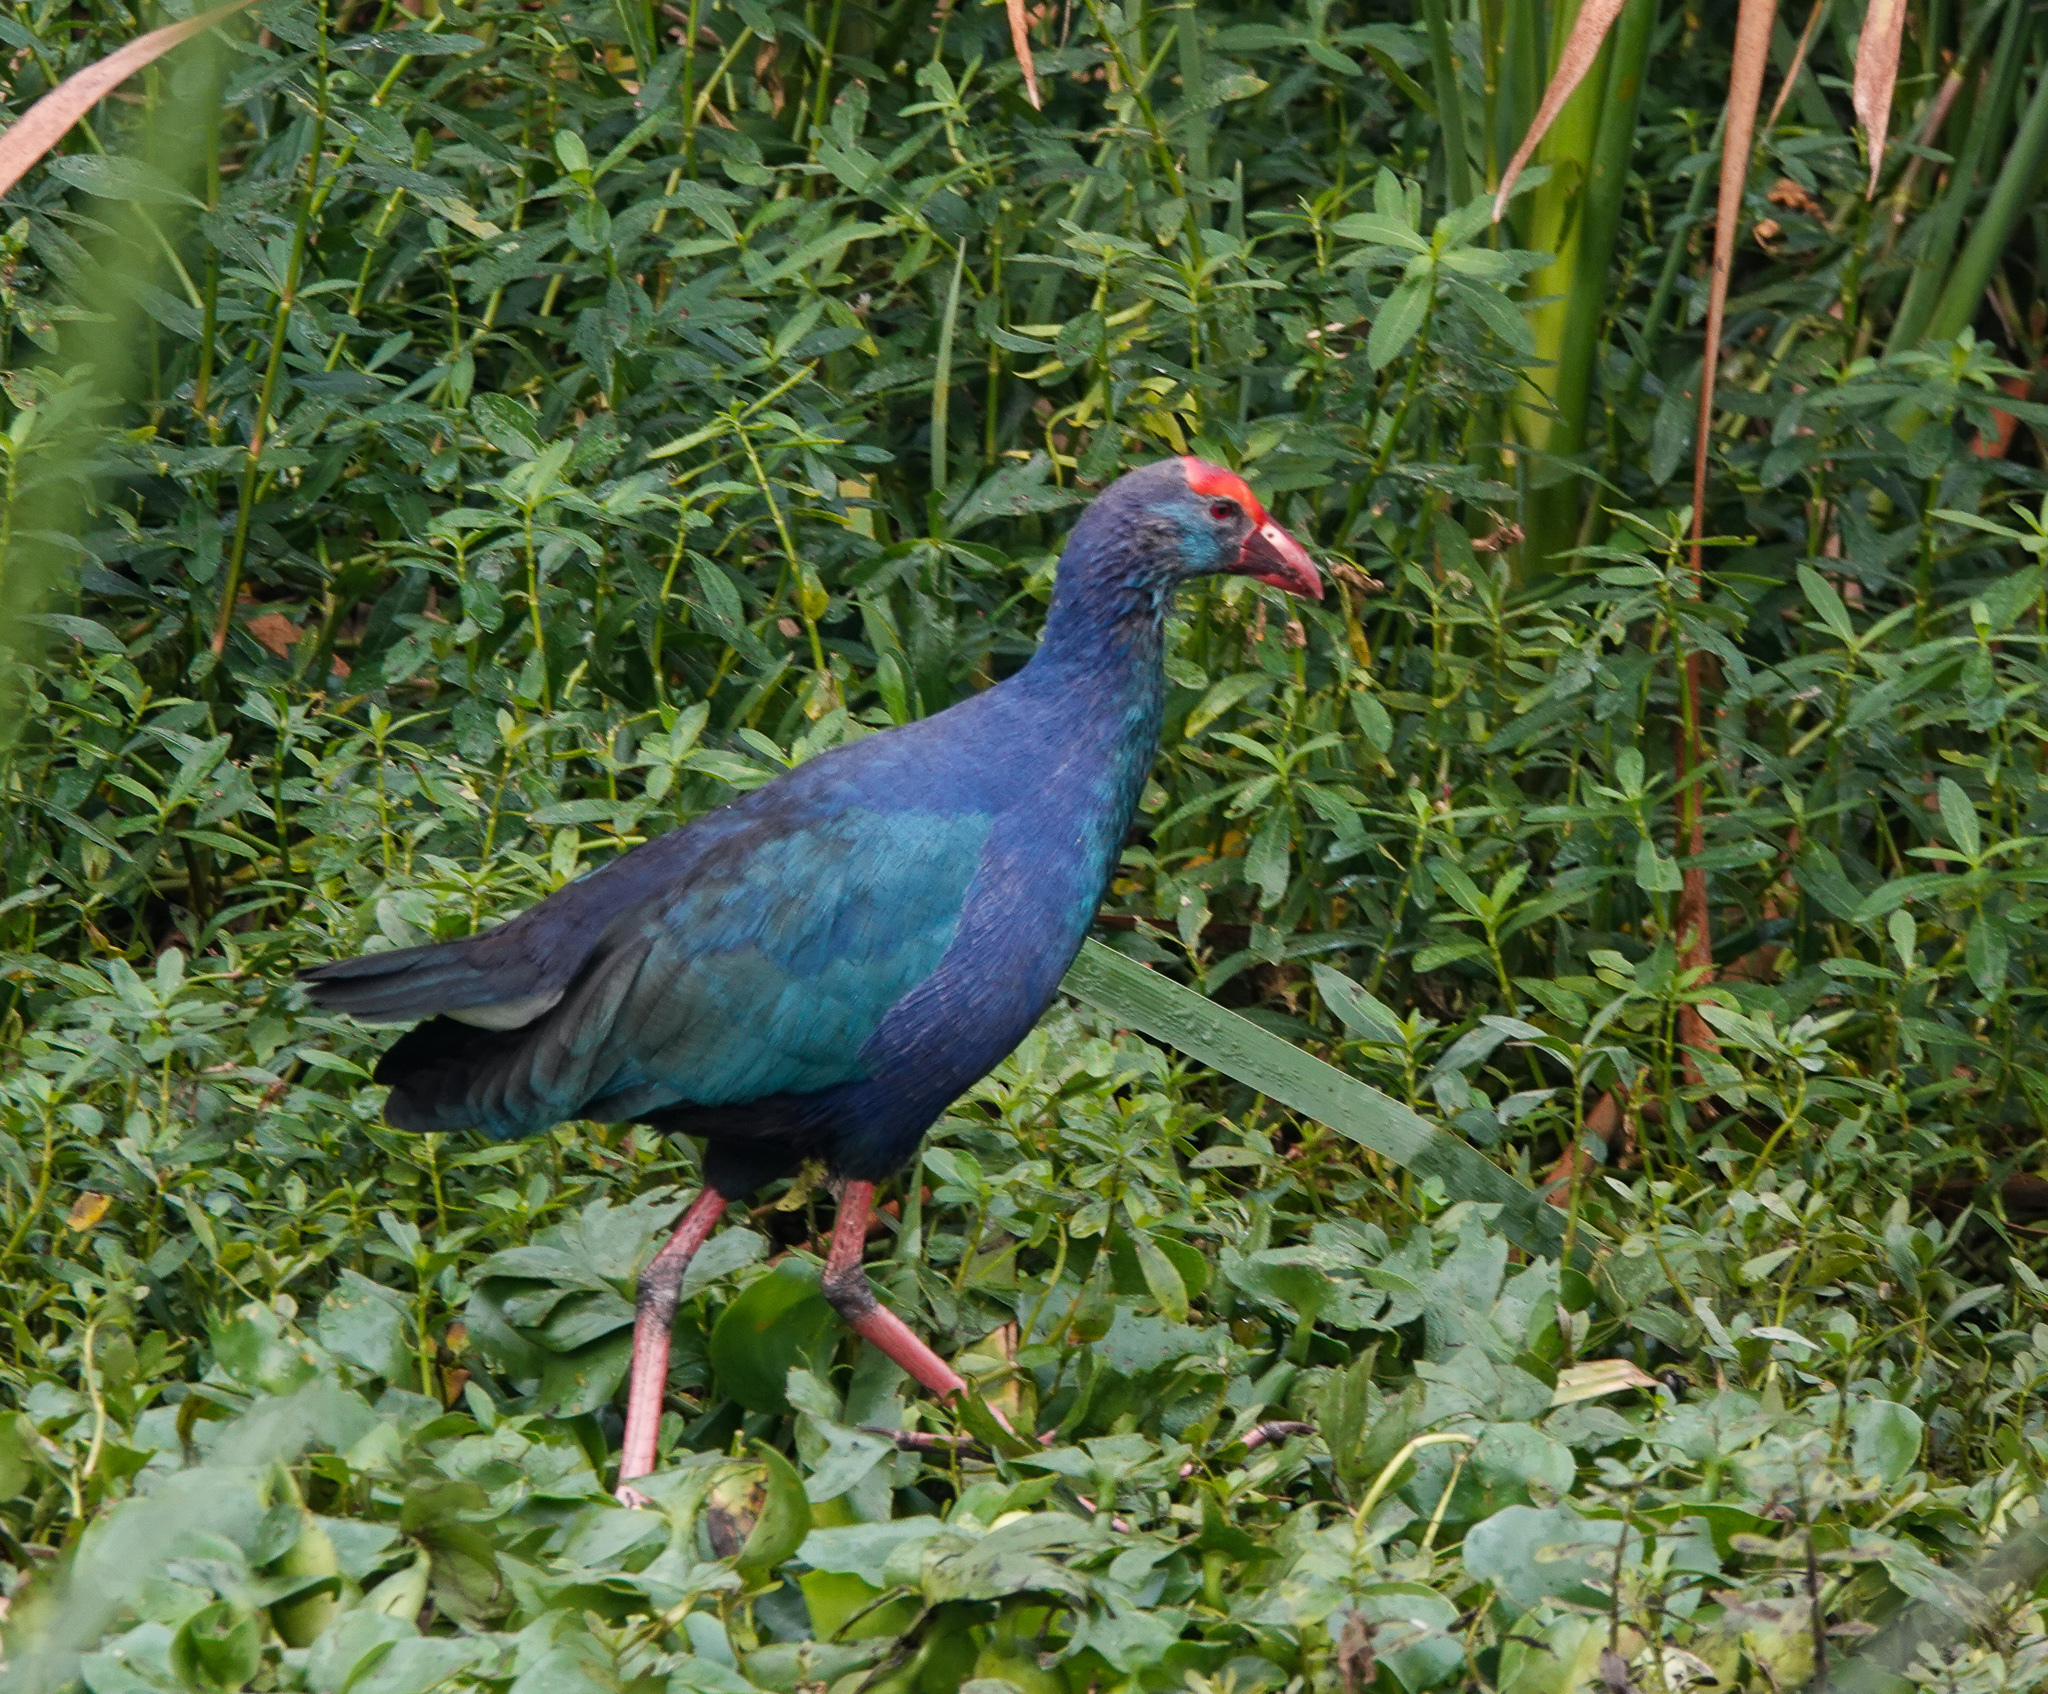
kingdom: Animalia
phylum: Chordata
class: Aves
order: Gruiformes
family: Rallidae
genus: Porphyrio
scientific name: Porphyrio porphyrio
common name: Purple swamphen
